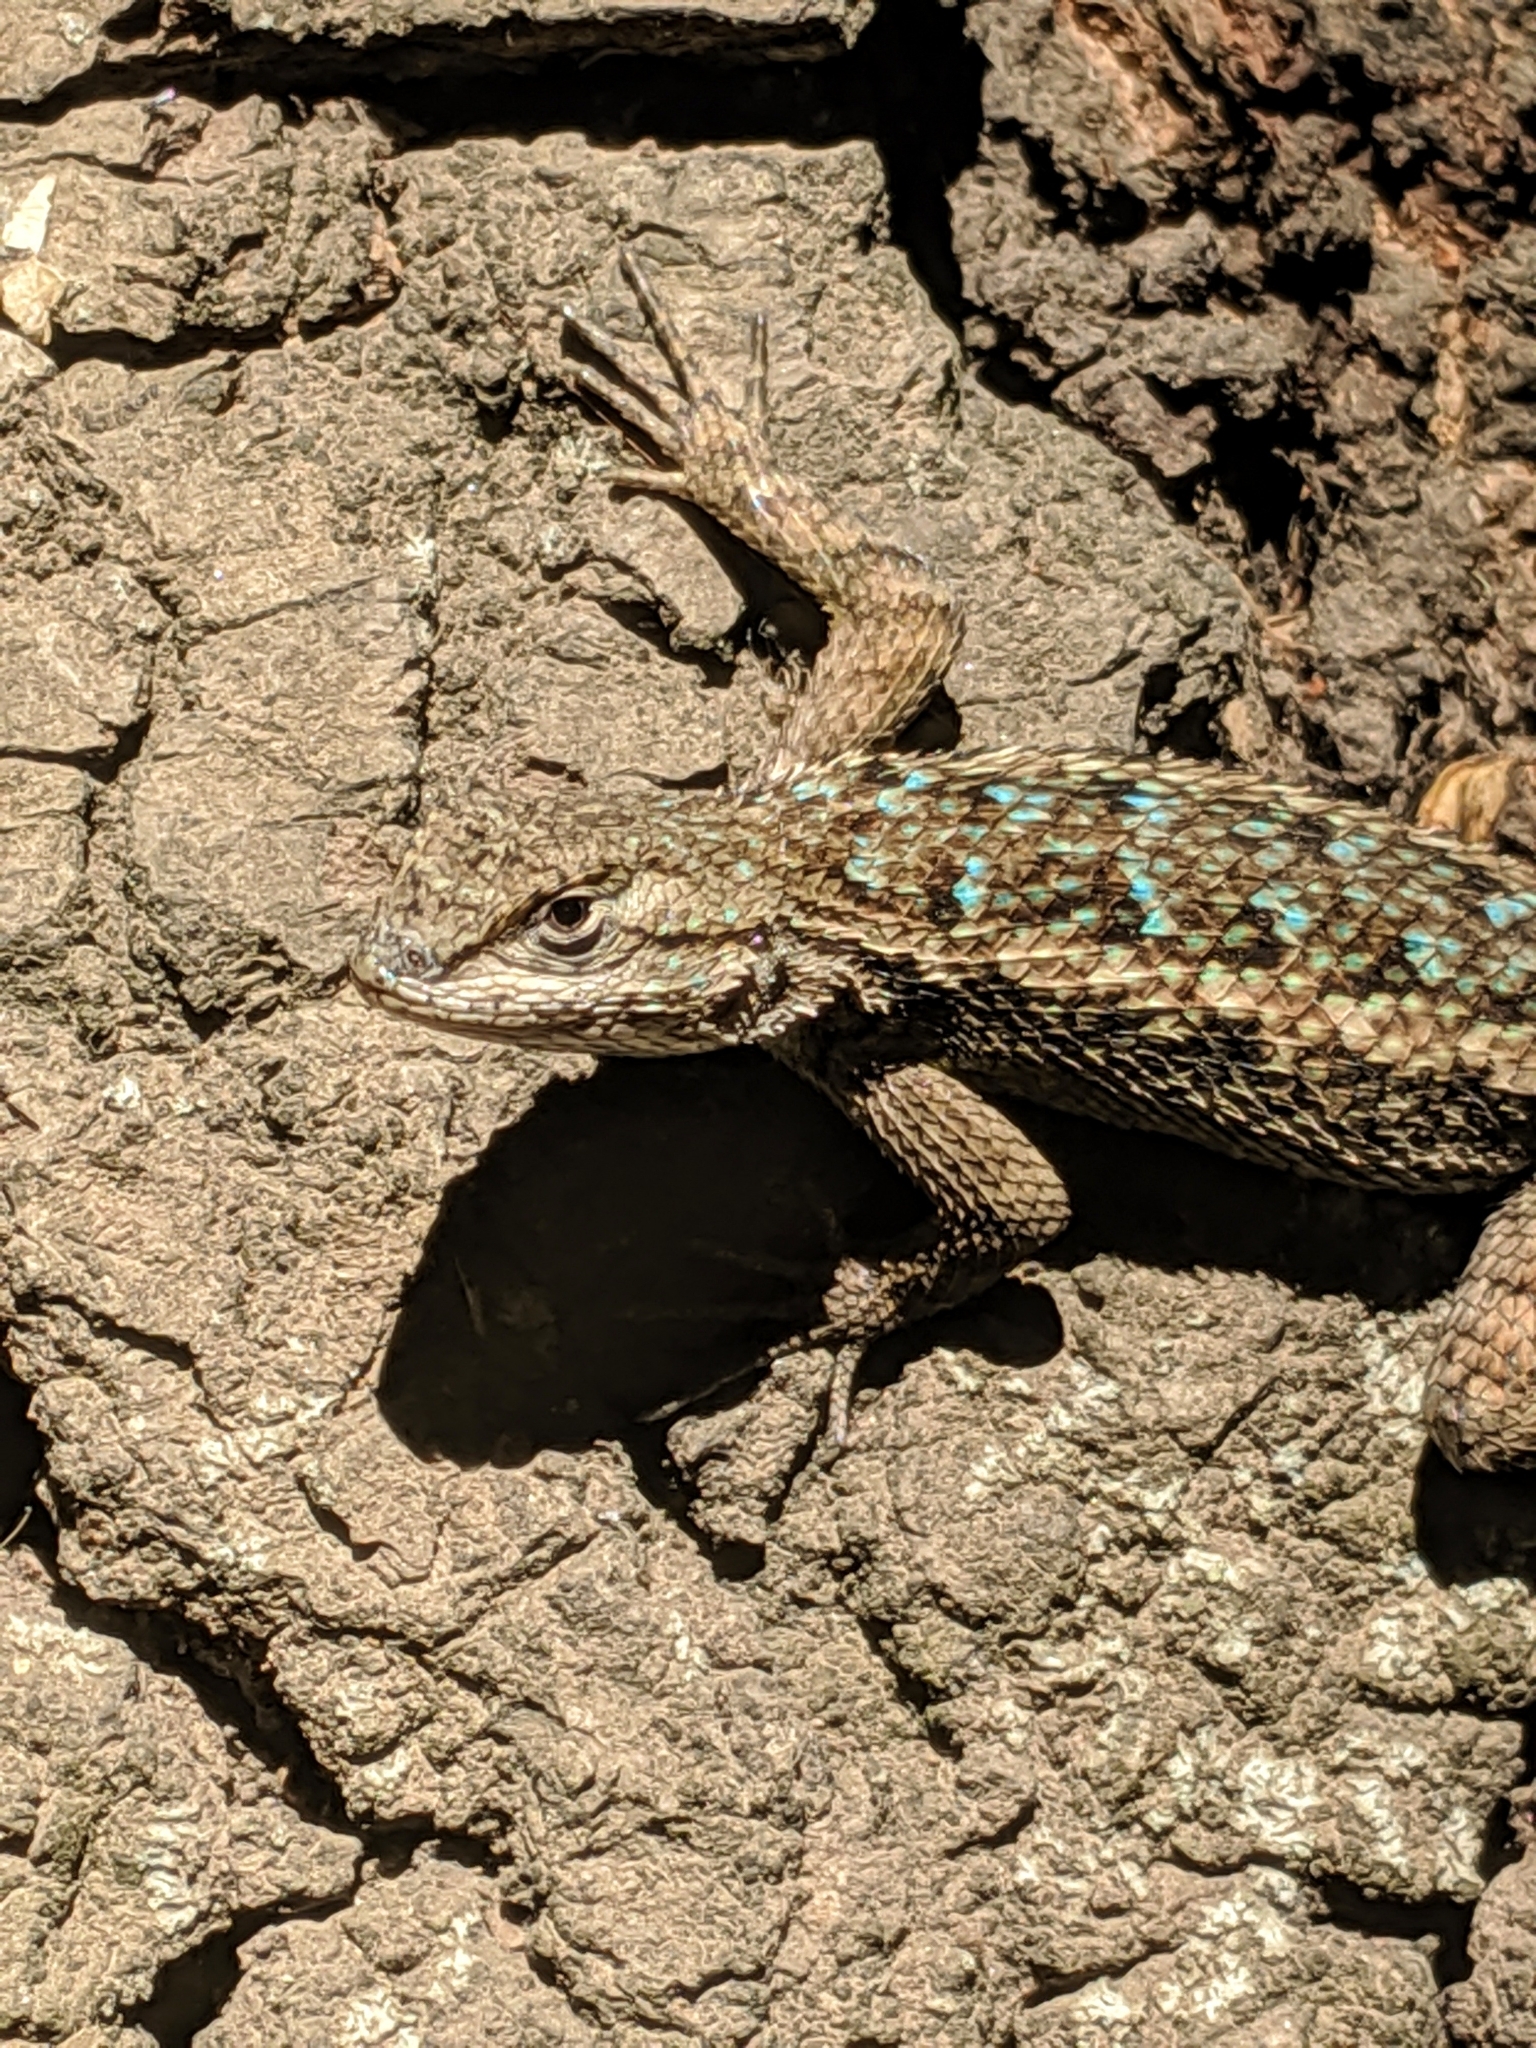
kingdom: Animalia
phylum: Chordata
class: Squamata
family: Phrynosomatidae
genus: Sceloporus
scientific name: Sceloporus occidentalis
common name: Western fence lizard
